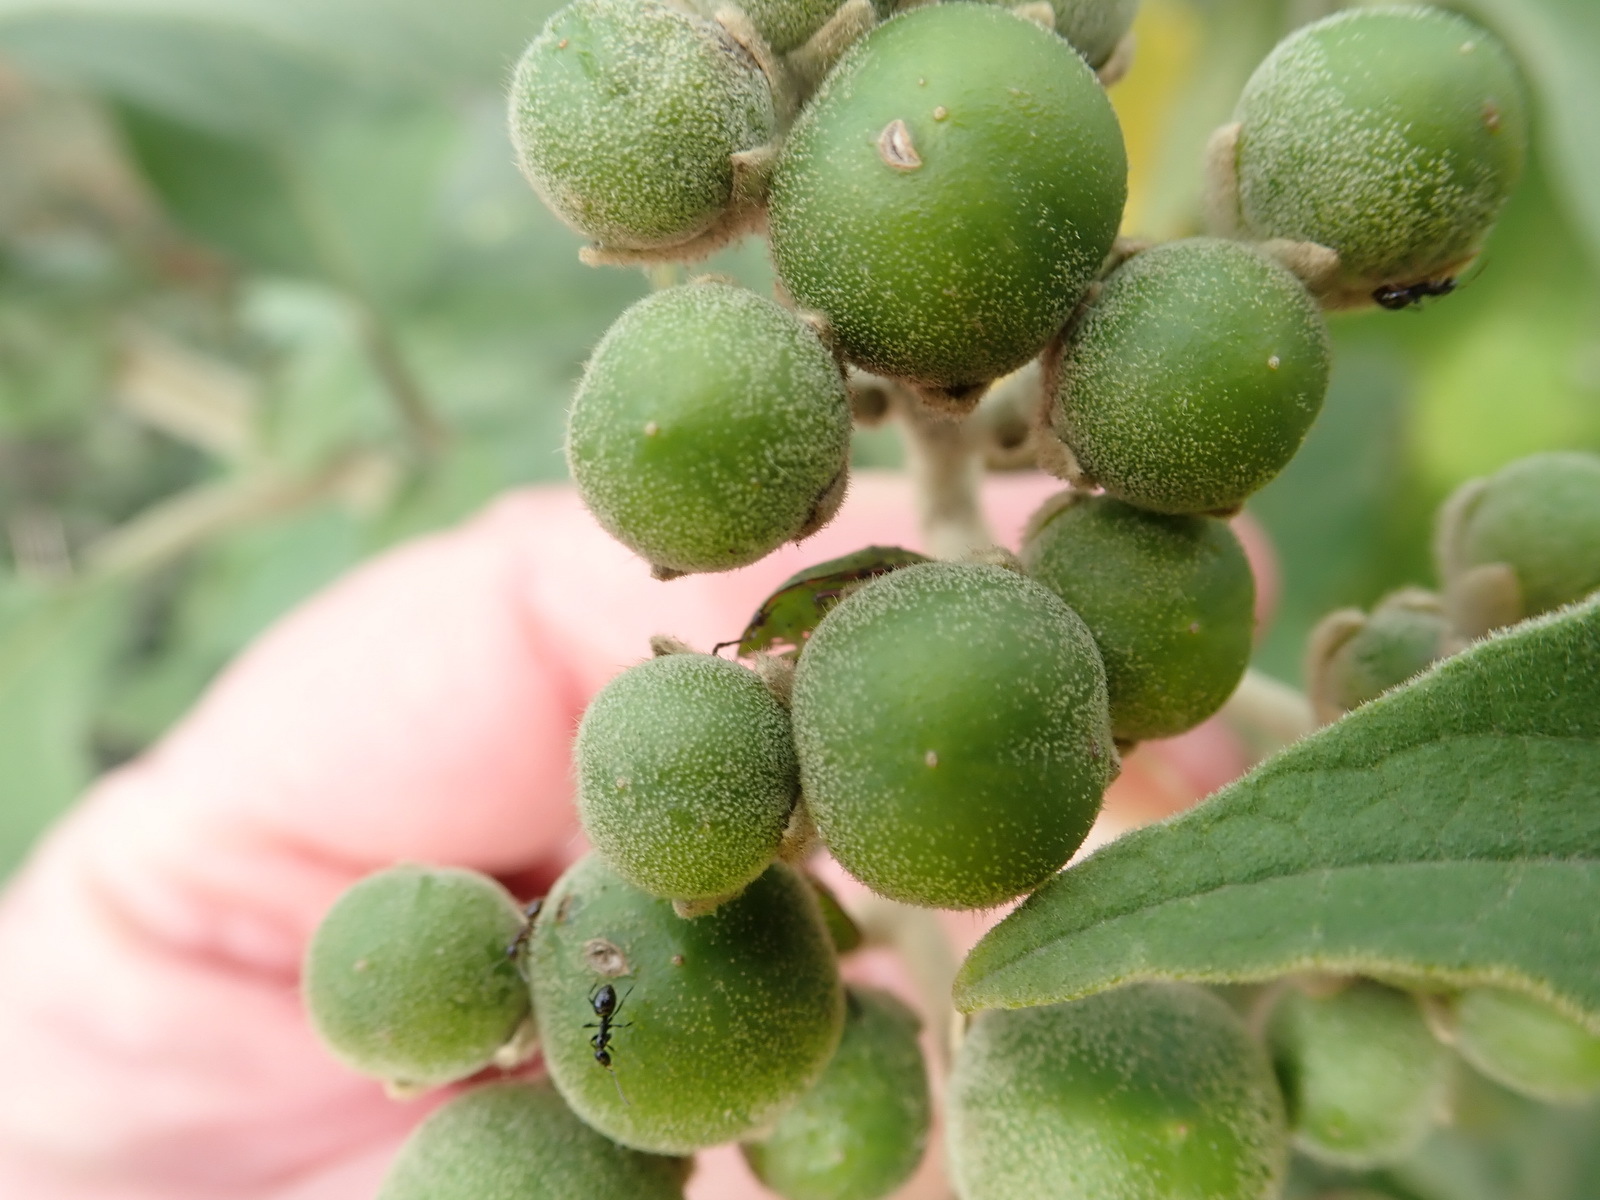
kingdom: Plantae
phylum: Tracheophyta
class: Magnoliopsida
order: Solanales
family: Solanaceae
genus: Solanum
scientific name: Solanum mauritianum
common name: Earleaf nightshade
